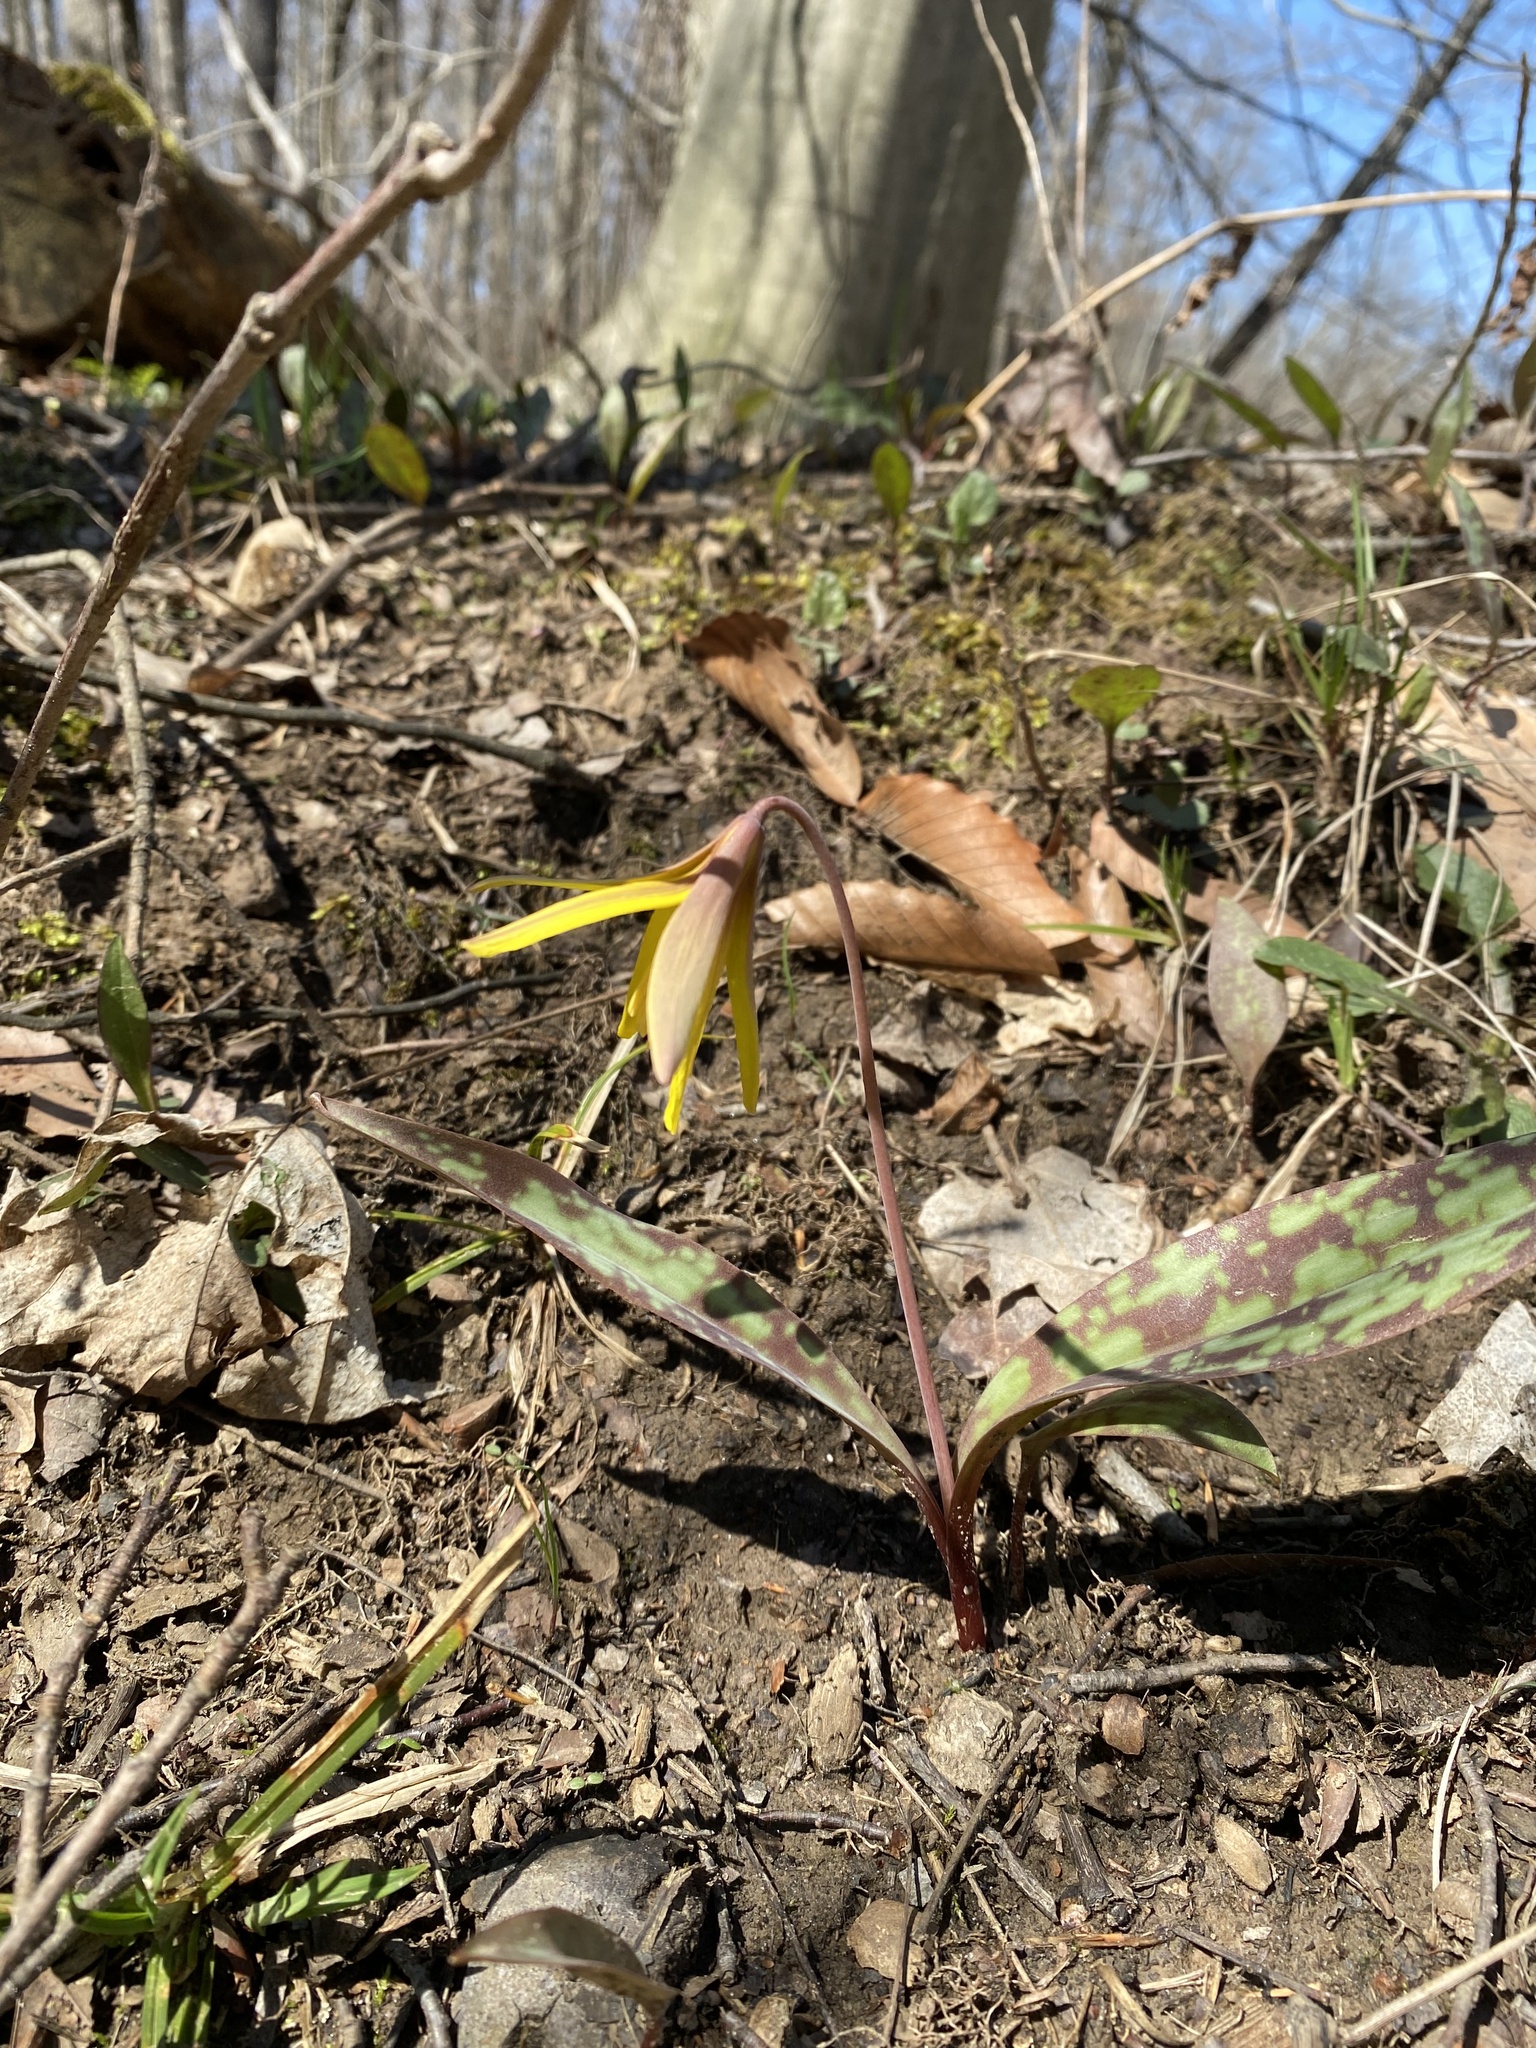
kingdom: Plantae
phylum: Tracheophyta
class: Liliopsida
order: Liliales
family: Liliaceae
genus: Erythronium
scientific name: Erythronium americanum
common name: Yellow adder's-tongue
